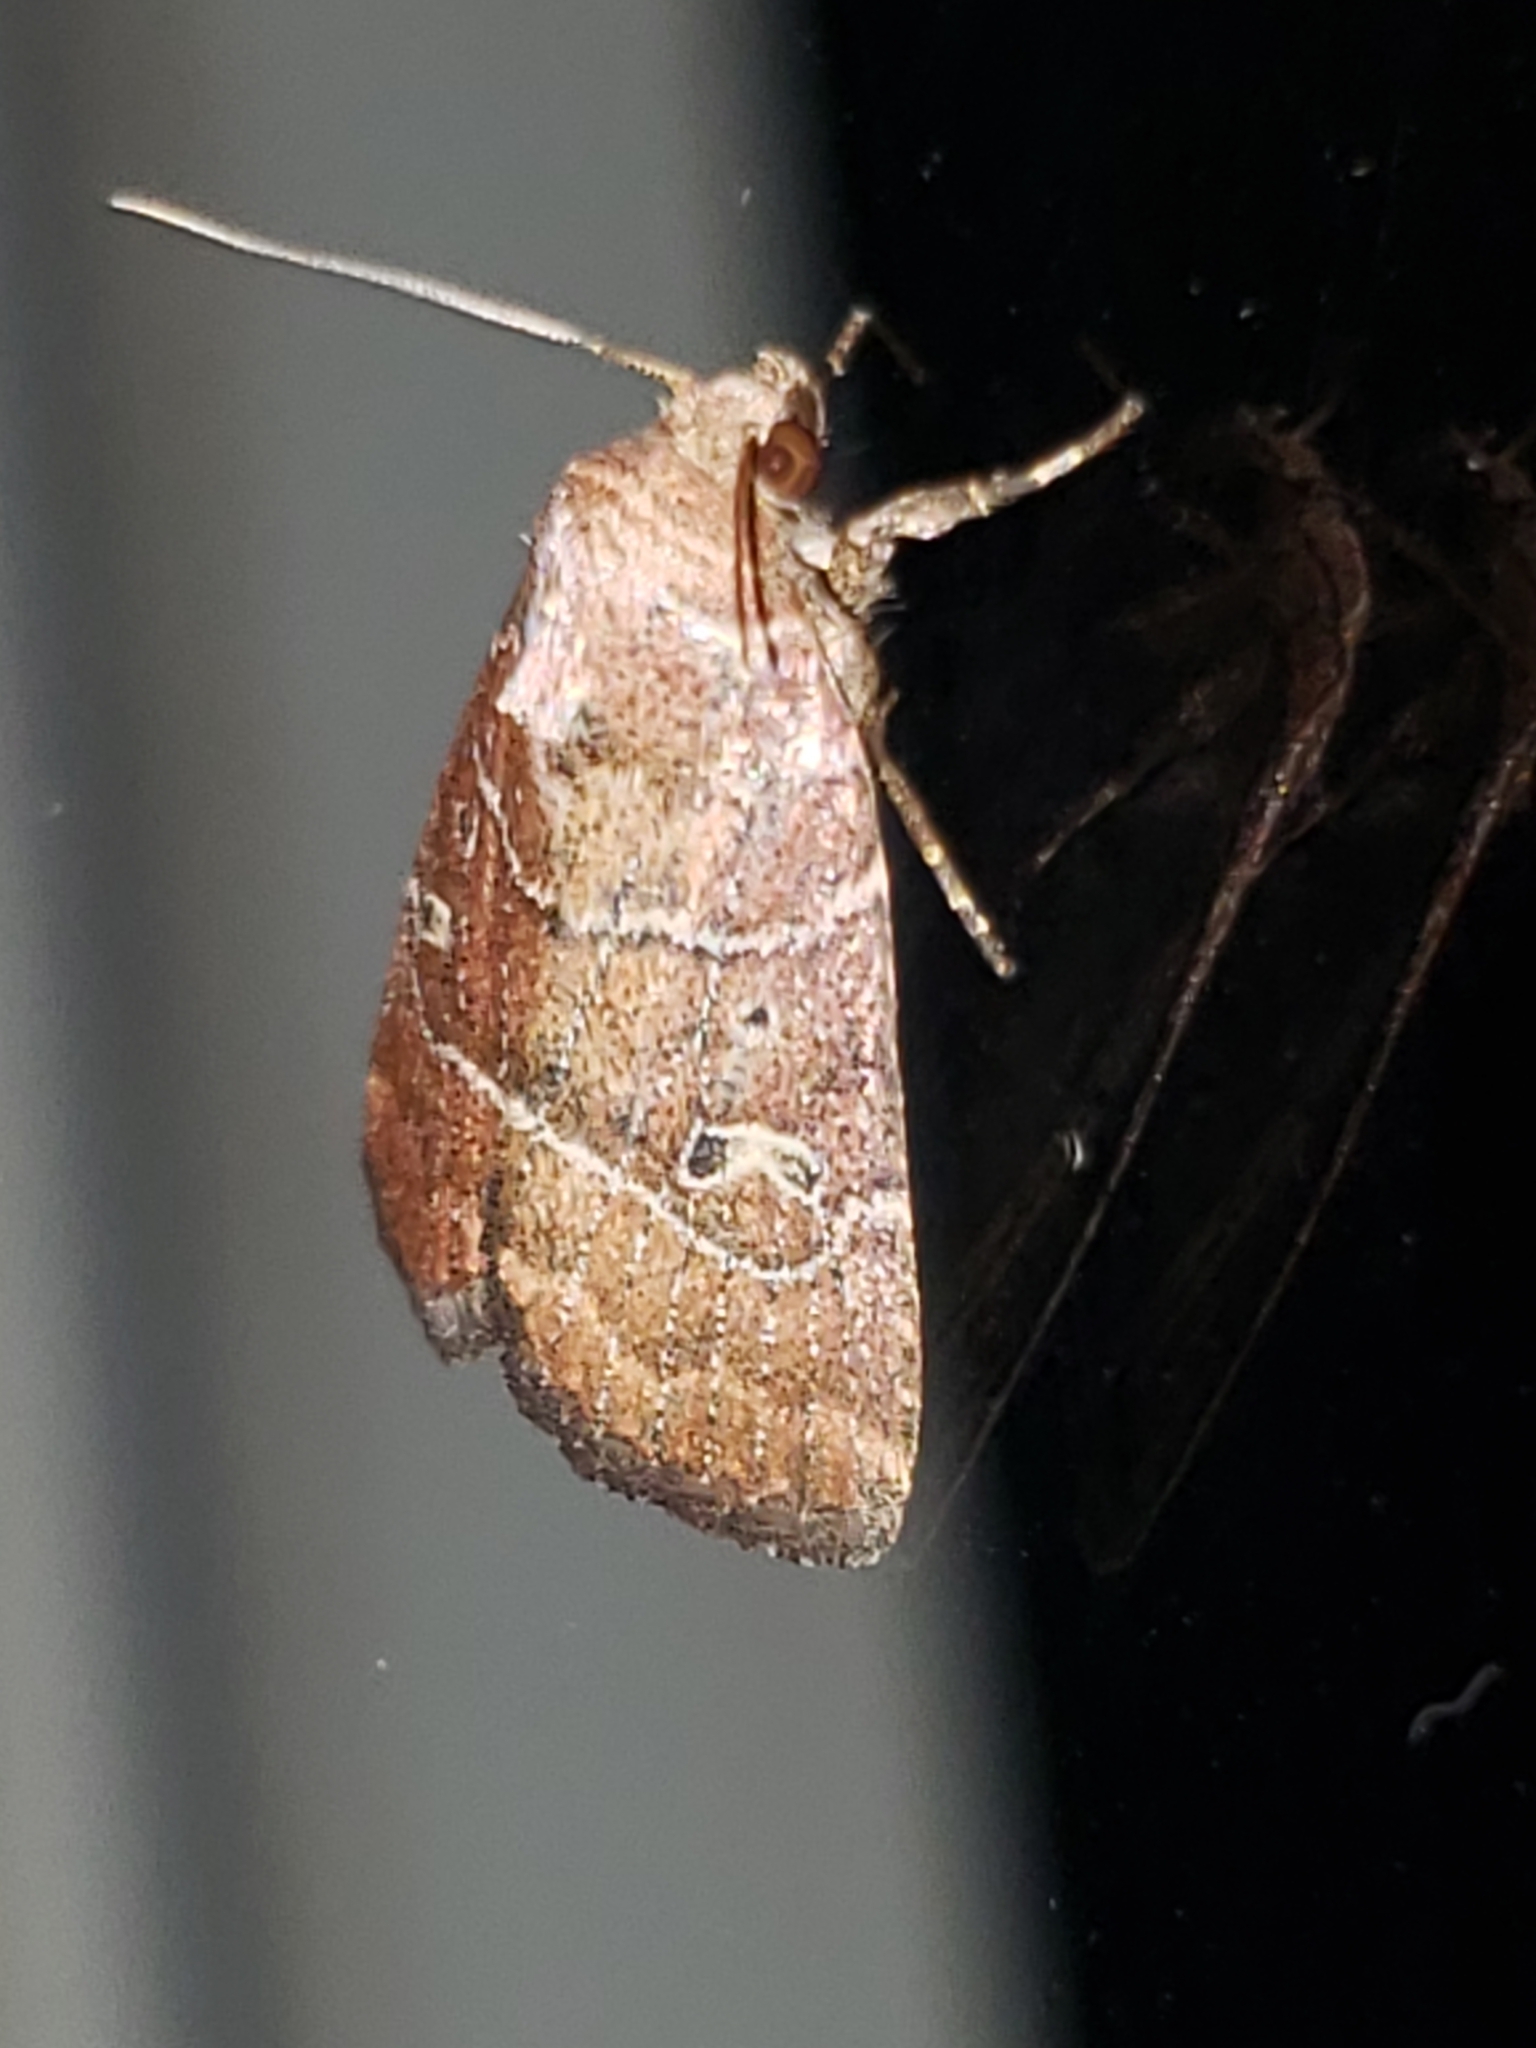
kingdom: Animalia
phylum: Arthropoda
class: Insecta
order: Lepidoptera
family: Noctuidae
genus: Elaphria
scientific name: Elaphria grata
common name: Grateful midget moth
